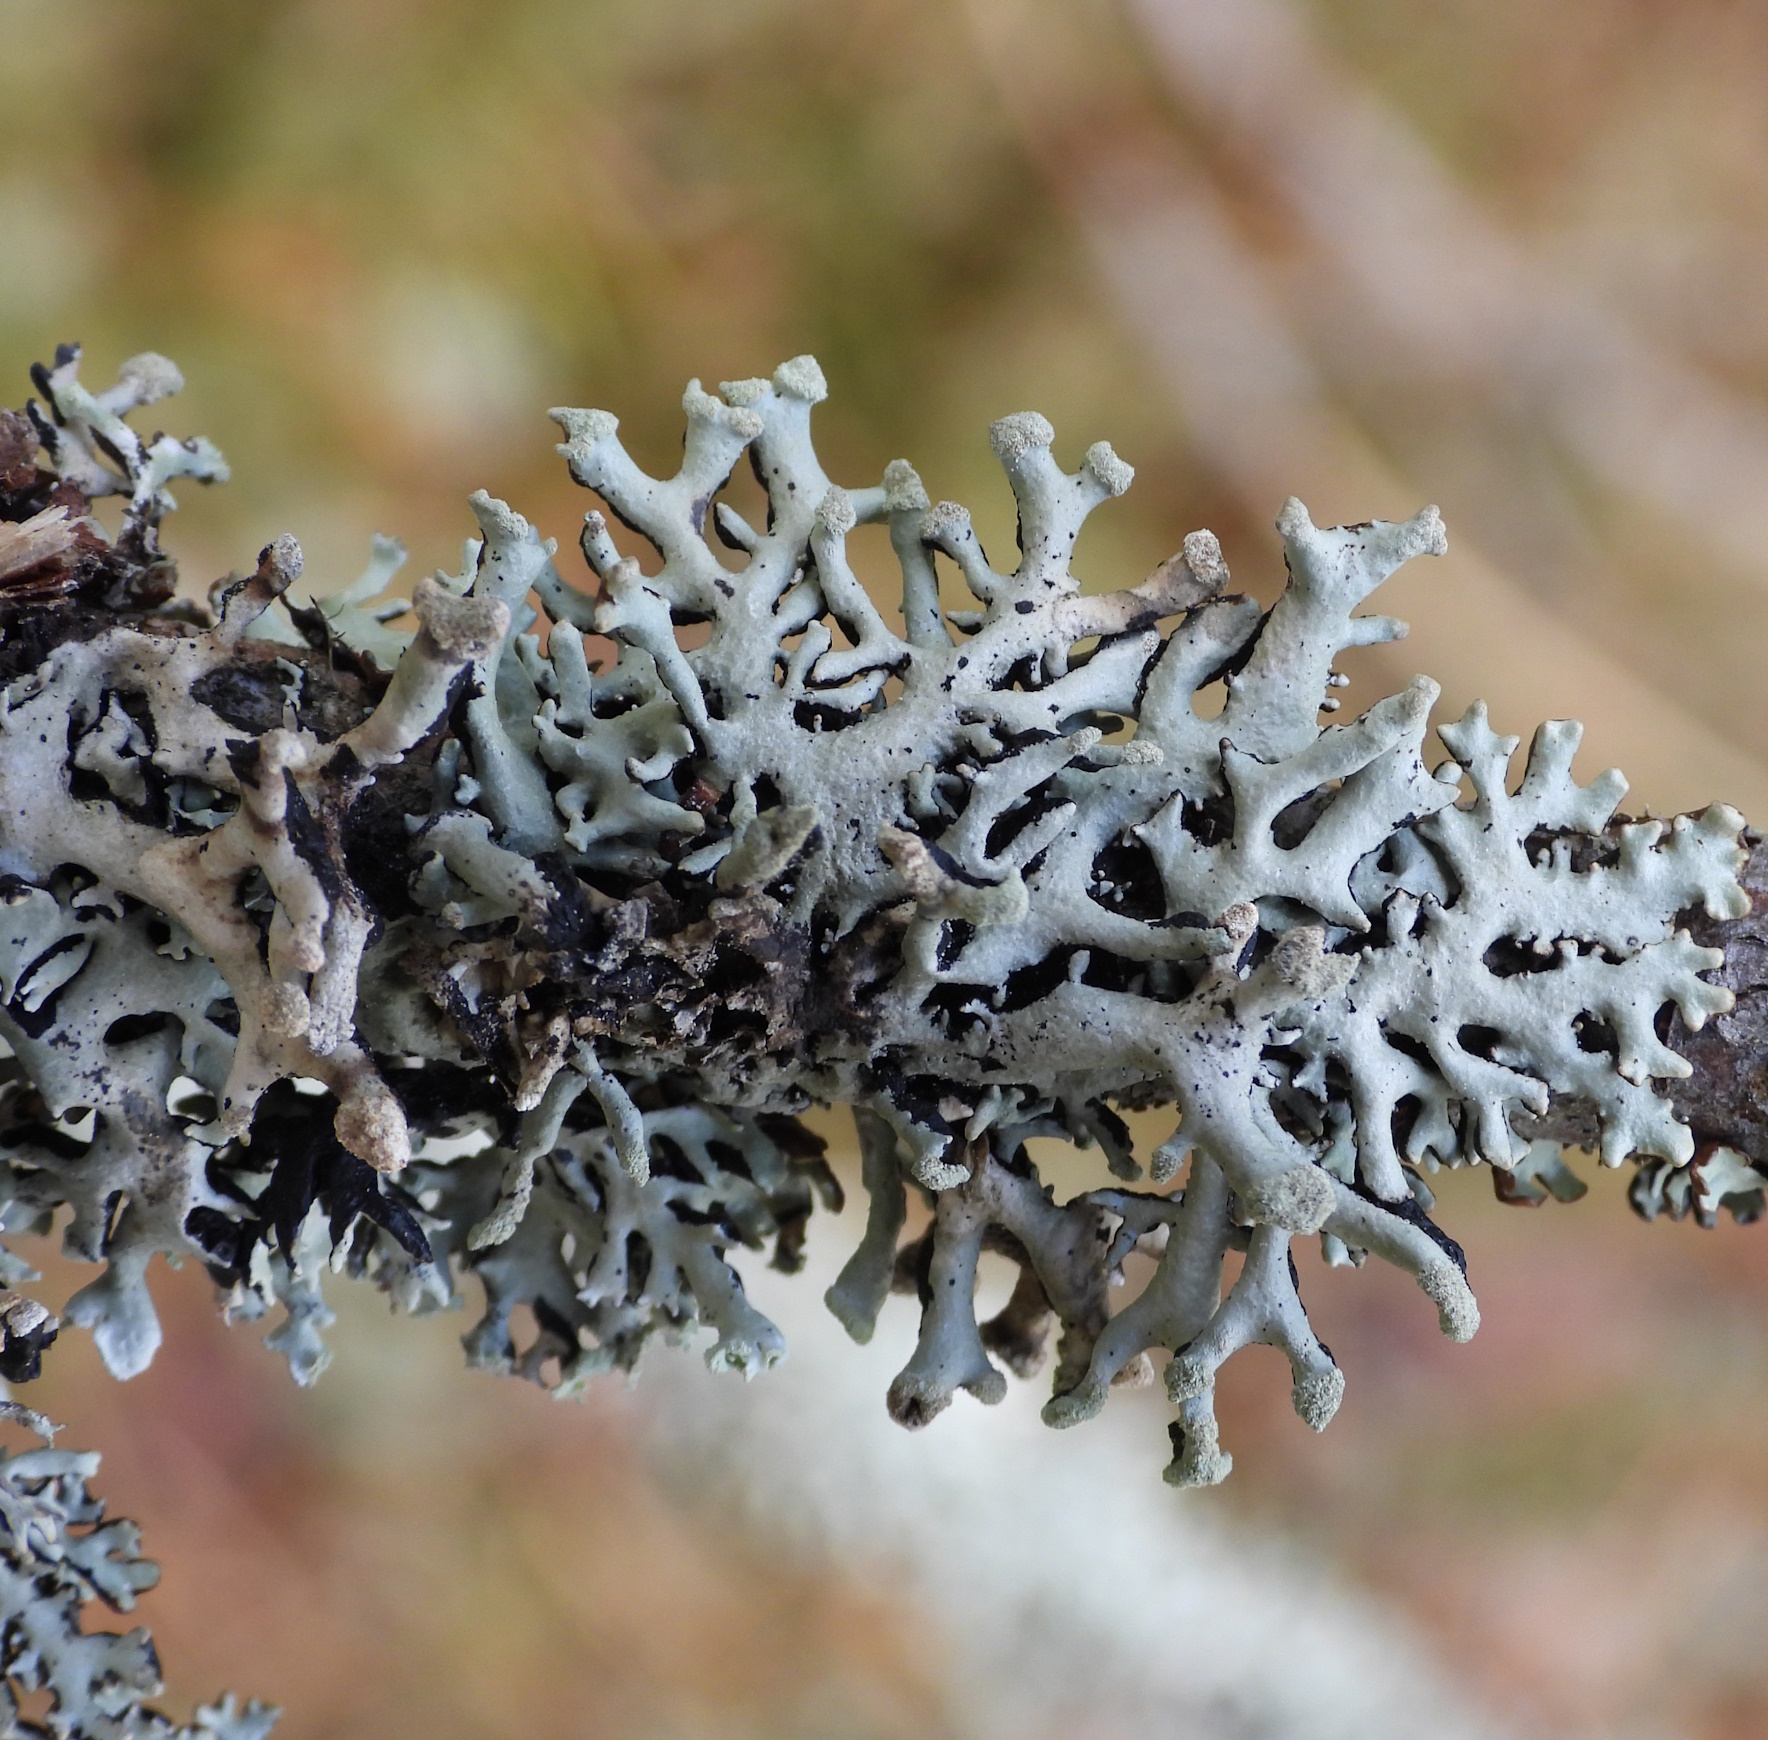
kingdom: Fungi
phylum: Ascomycota
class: Lecanoromycetes
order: Lecanorales
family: Parmeliaceae
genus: Hypogymnia
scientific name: Hypogymnia tubulosa
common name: Powder-headed tube lichen
